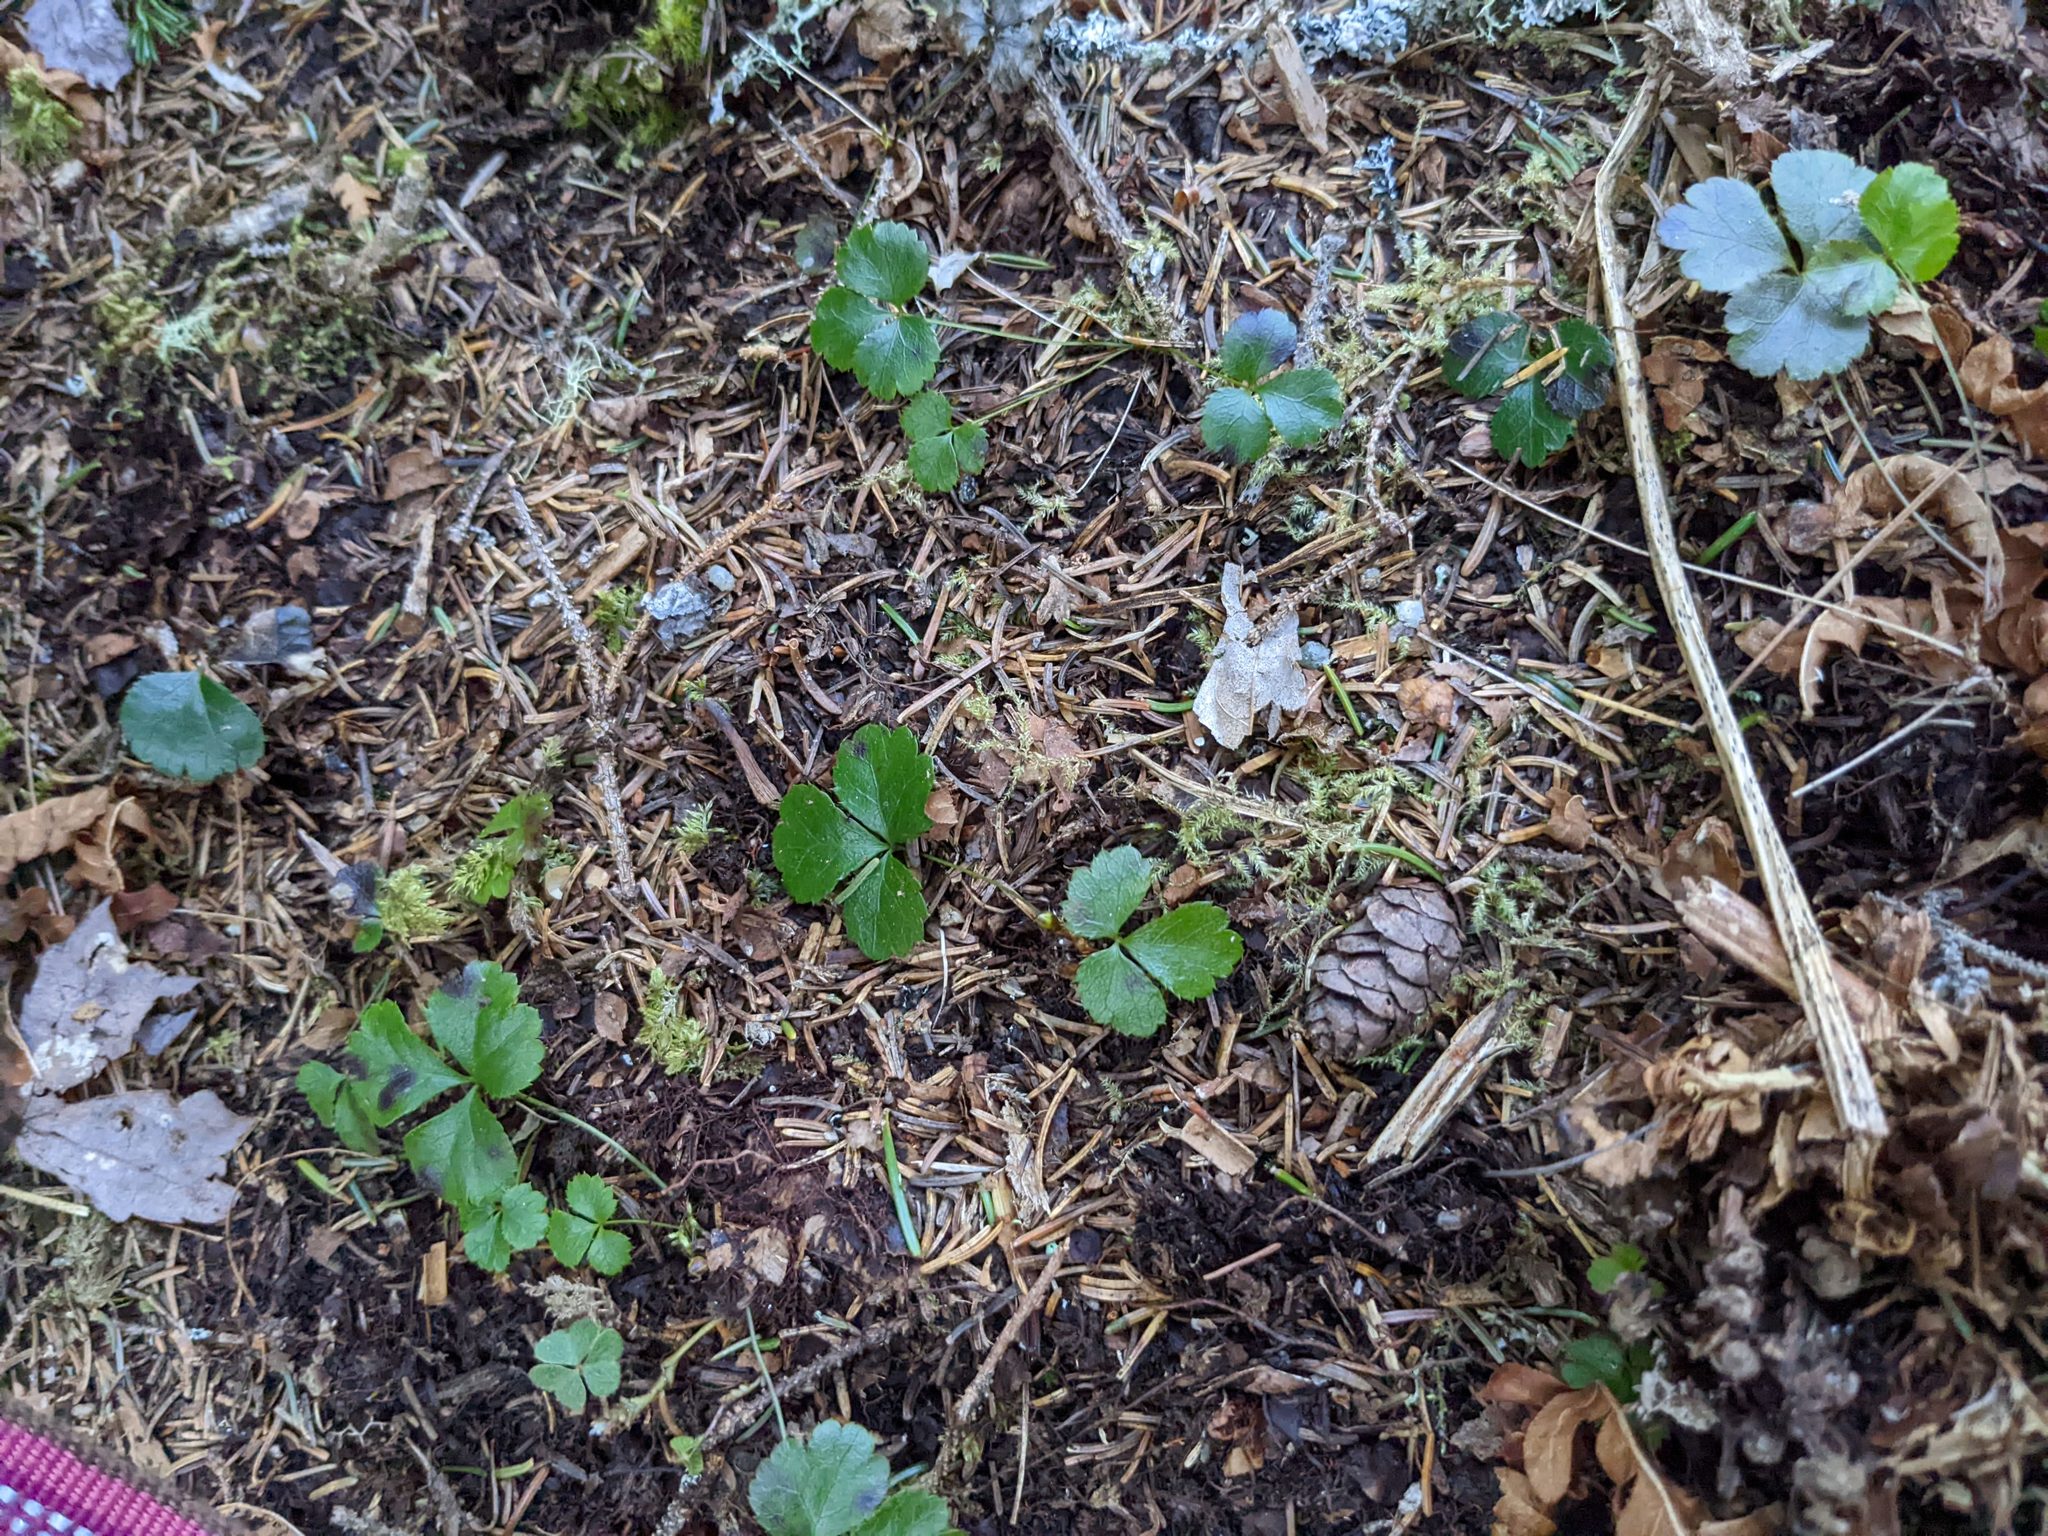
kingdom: Plantae
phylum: Tracheophyta
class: Magnoliopsida
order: Ranunculales
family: Ranunculaceae
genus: Coptis
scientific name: Coptis trifolia
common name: Canker-root
